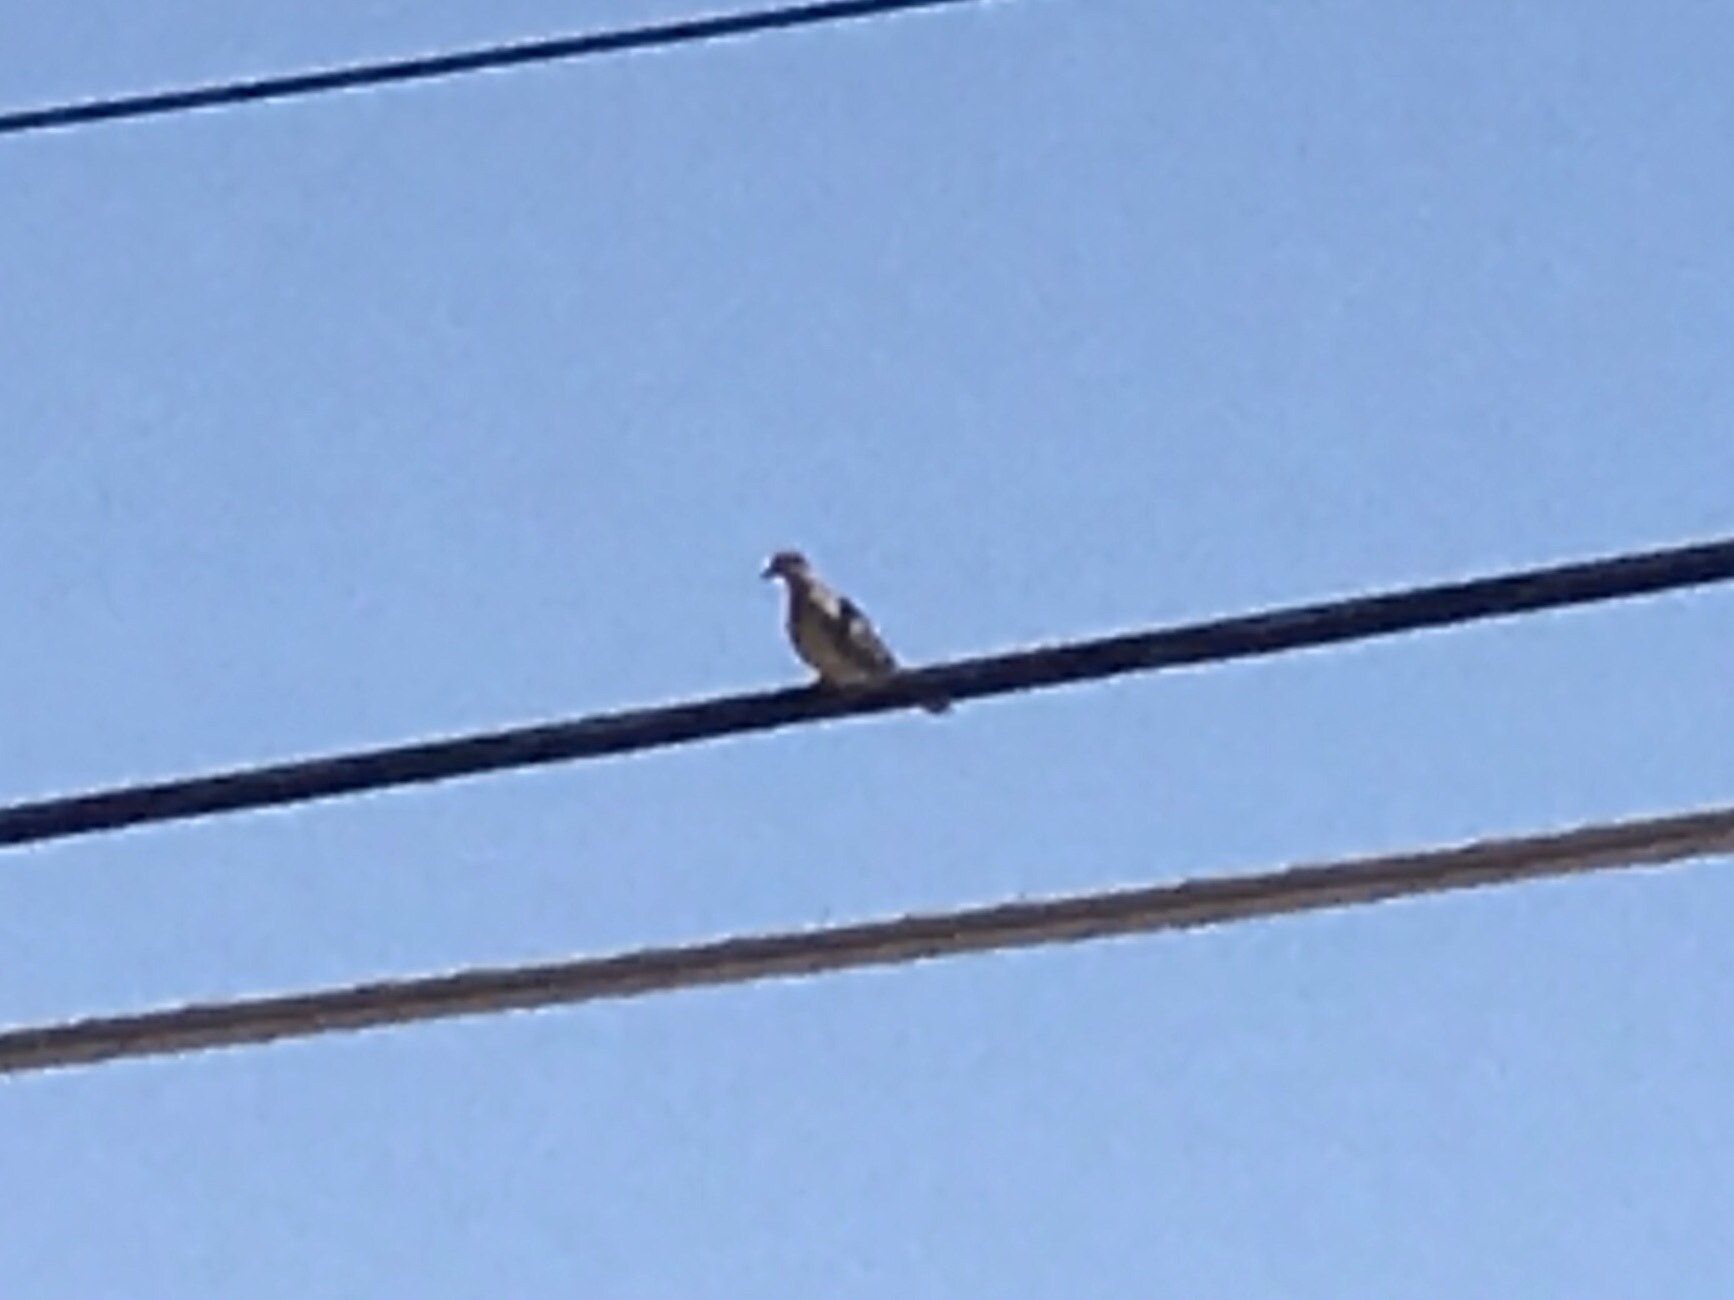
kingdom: Animalia
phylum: Chordata
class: Aves
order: Columbiformes
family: Columbidae
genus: Zenaida
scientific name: Zenaida macroura
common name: Mourning dove
